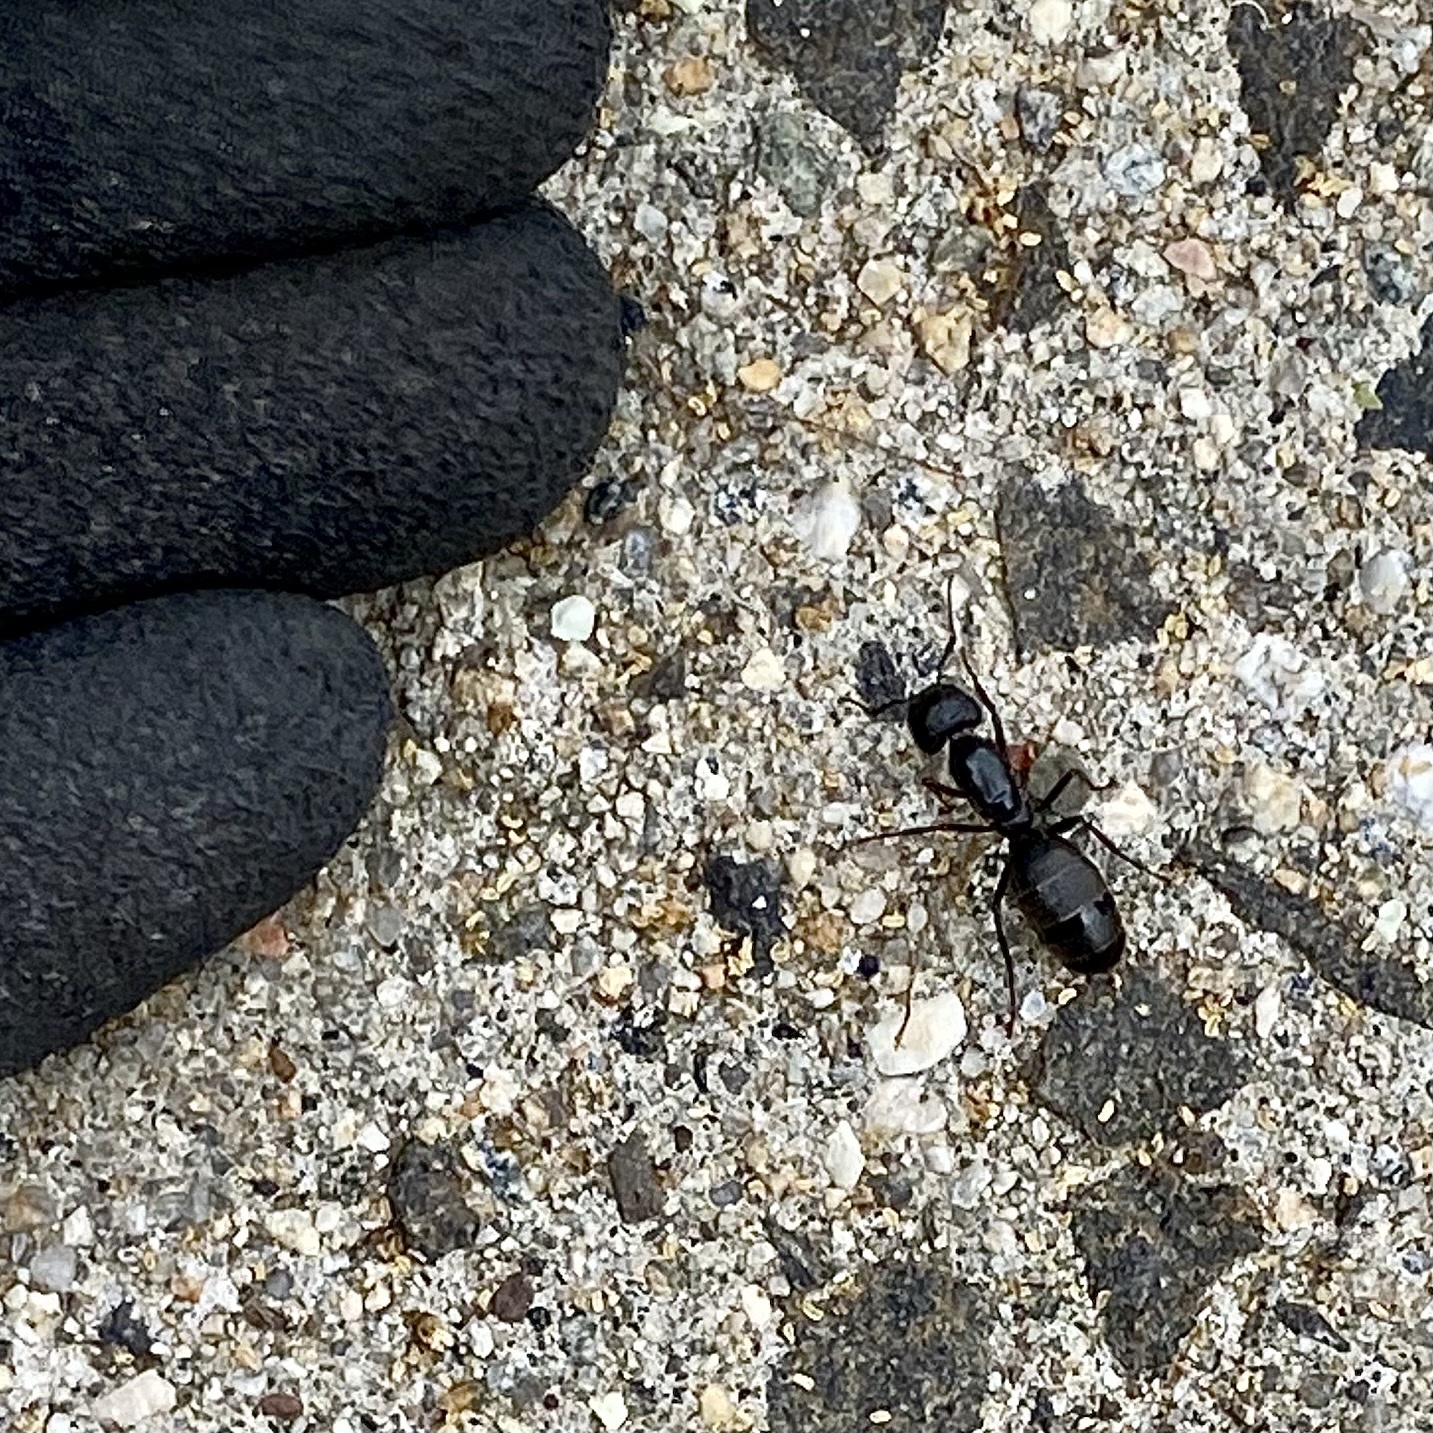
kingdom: Animalia
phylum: Arthropoda
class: Insecta
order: Hymenoptera
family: Formicidae
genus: Camponotus
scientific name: Camponotus pennsylvanicus
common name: Black carpenter ant
